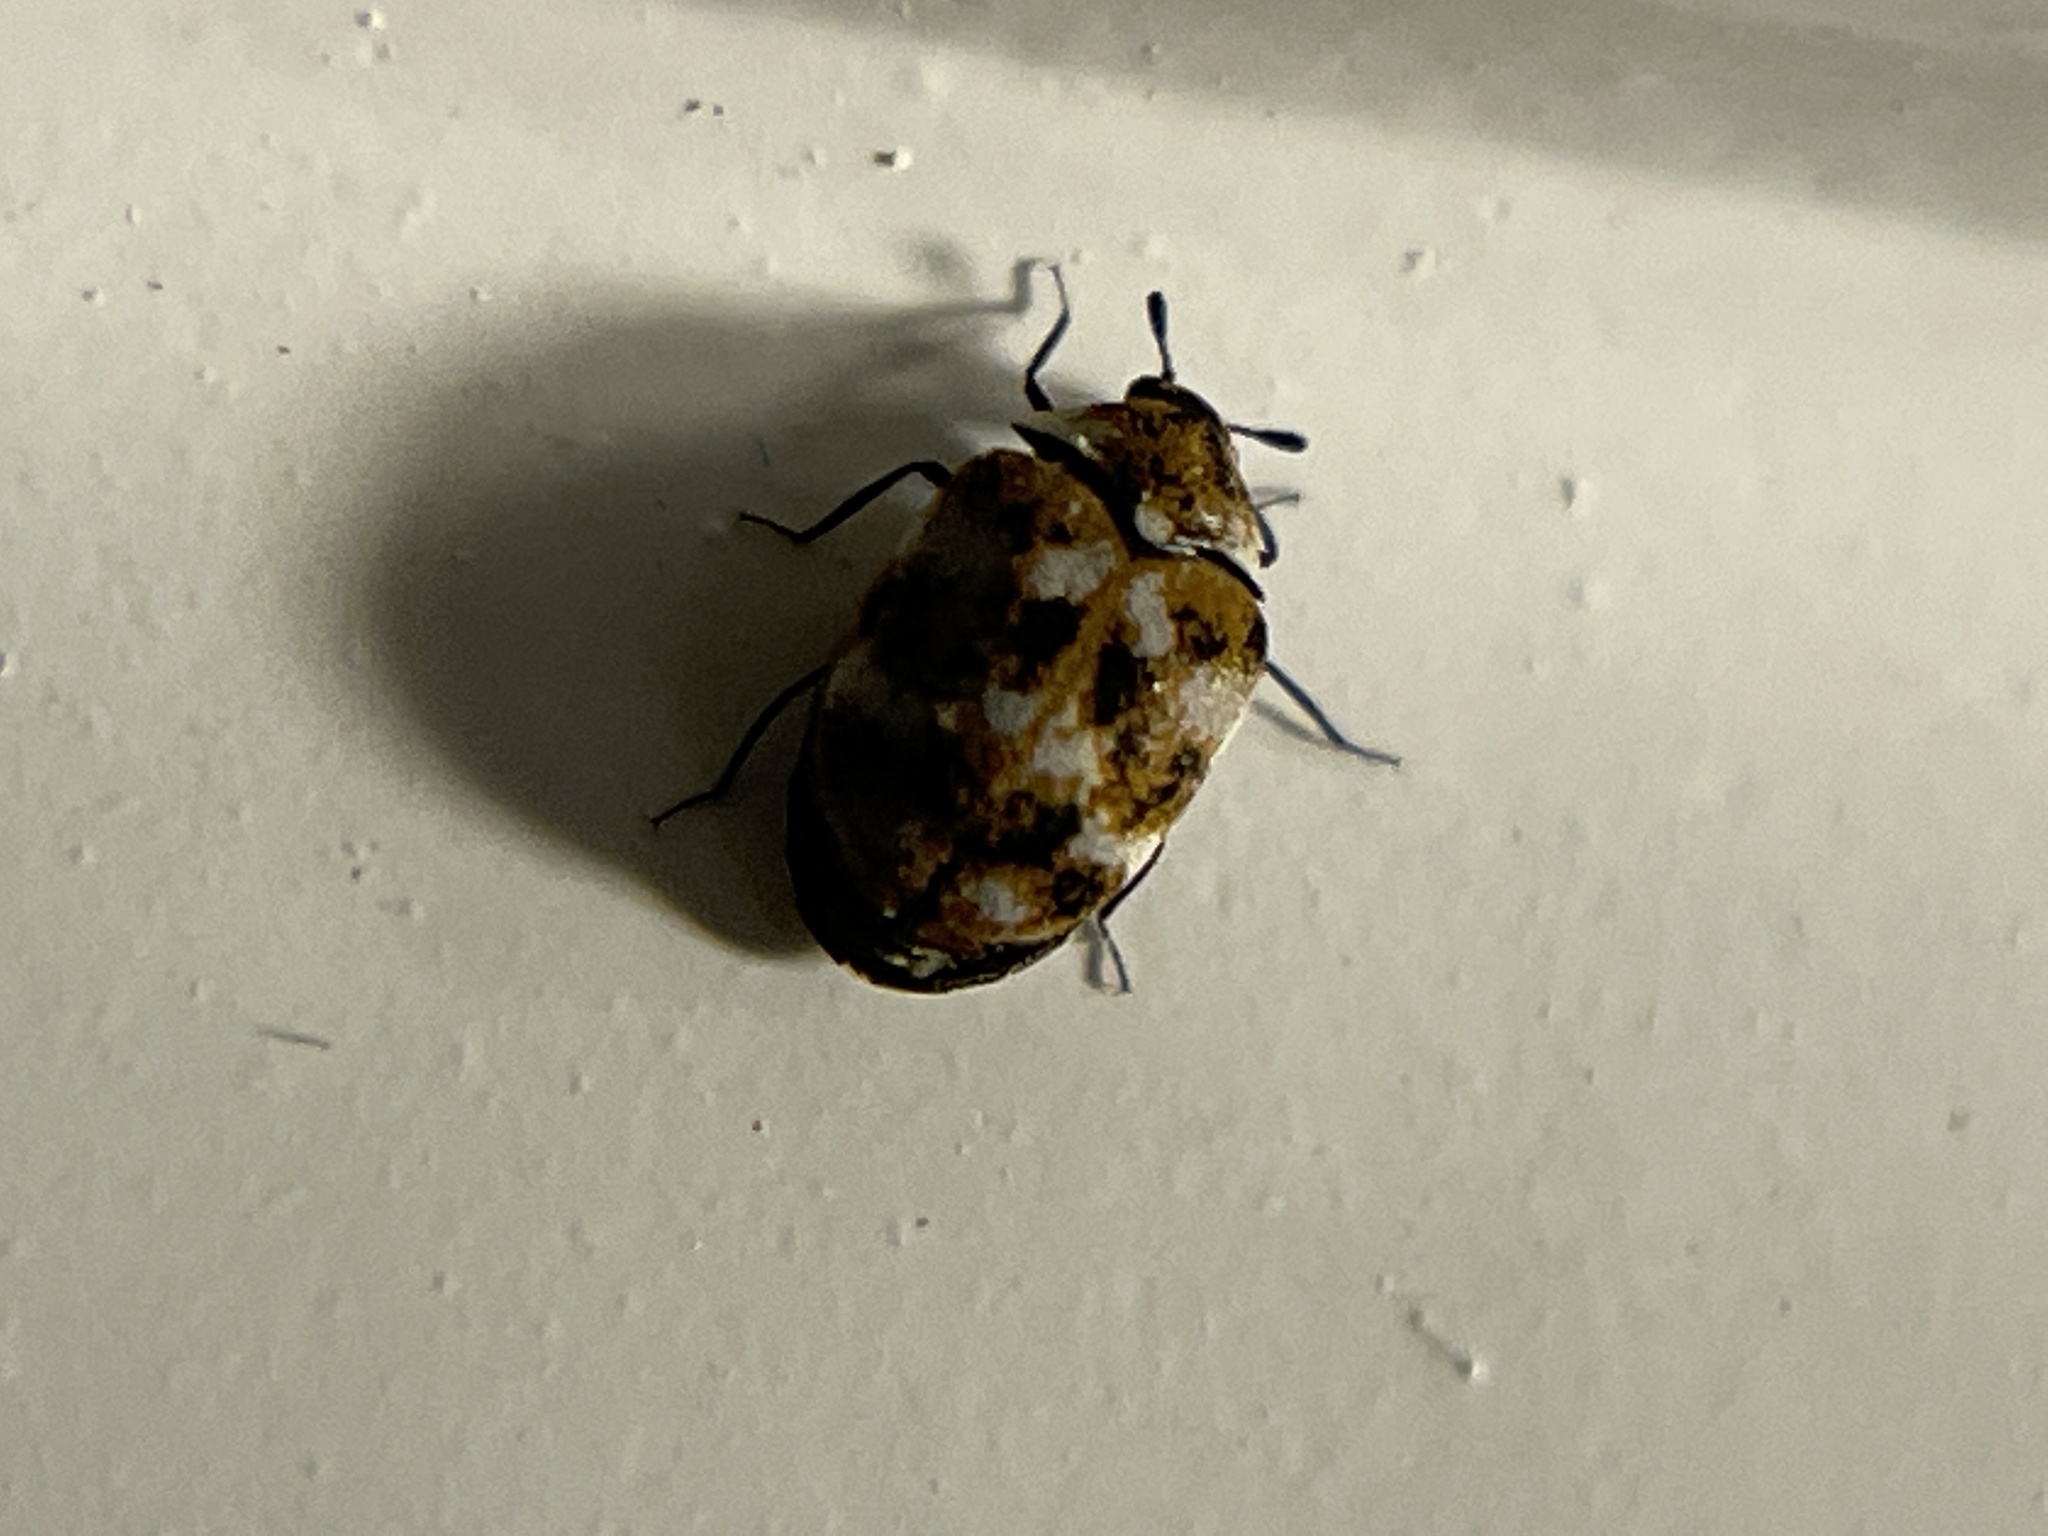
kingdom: Animalia
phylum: Arthropoda
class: Insecta
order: Coleoptera
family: Dermestidae
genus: Anthrenus
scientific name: Anthrenus verbasci
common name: Varied carpet beetle
